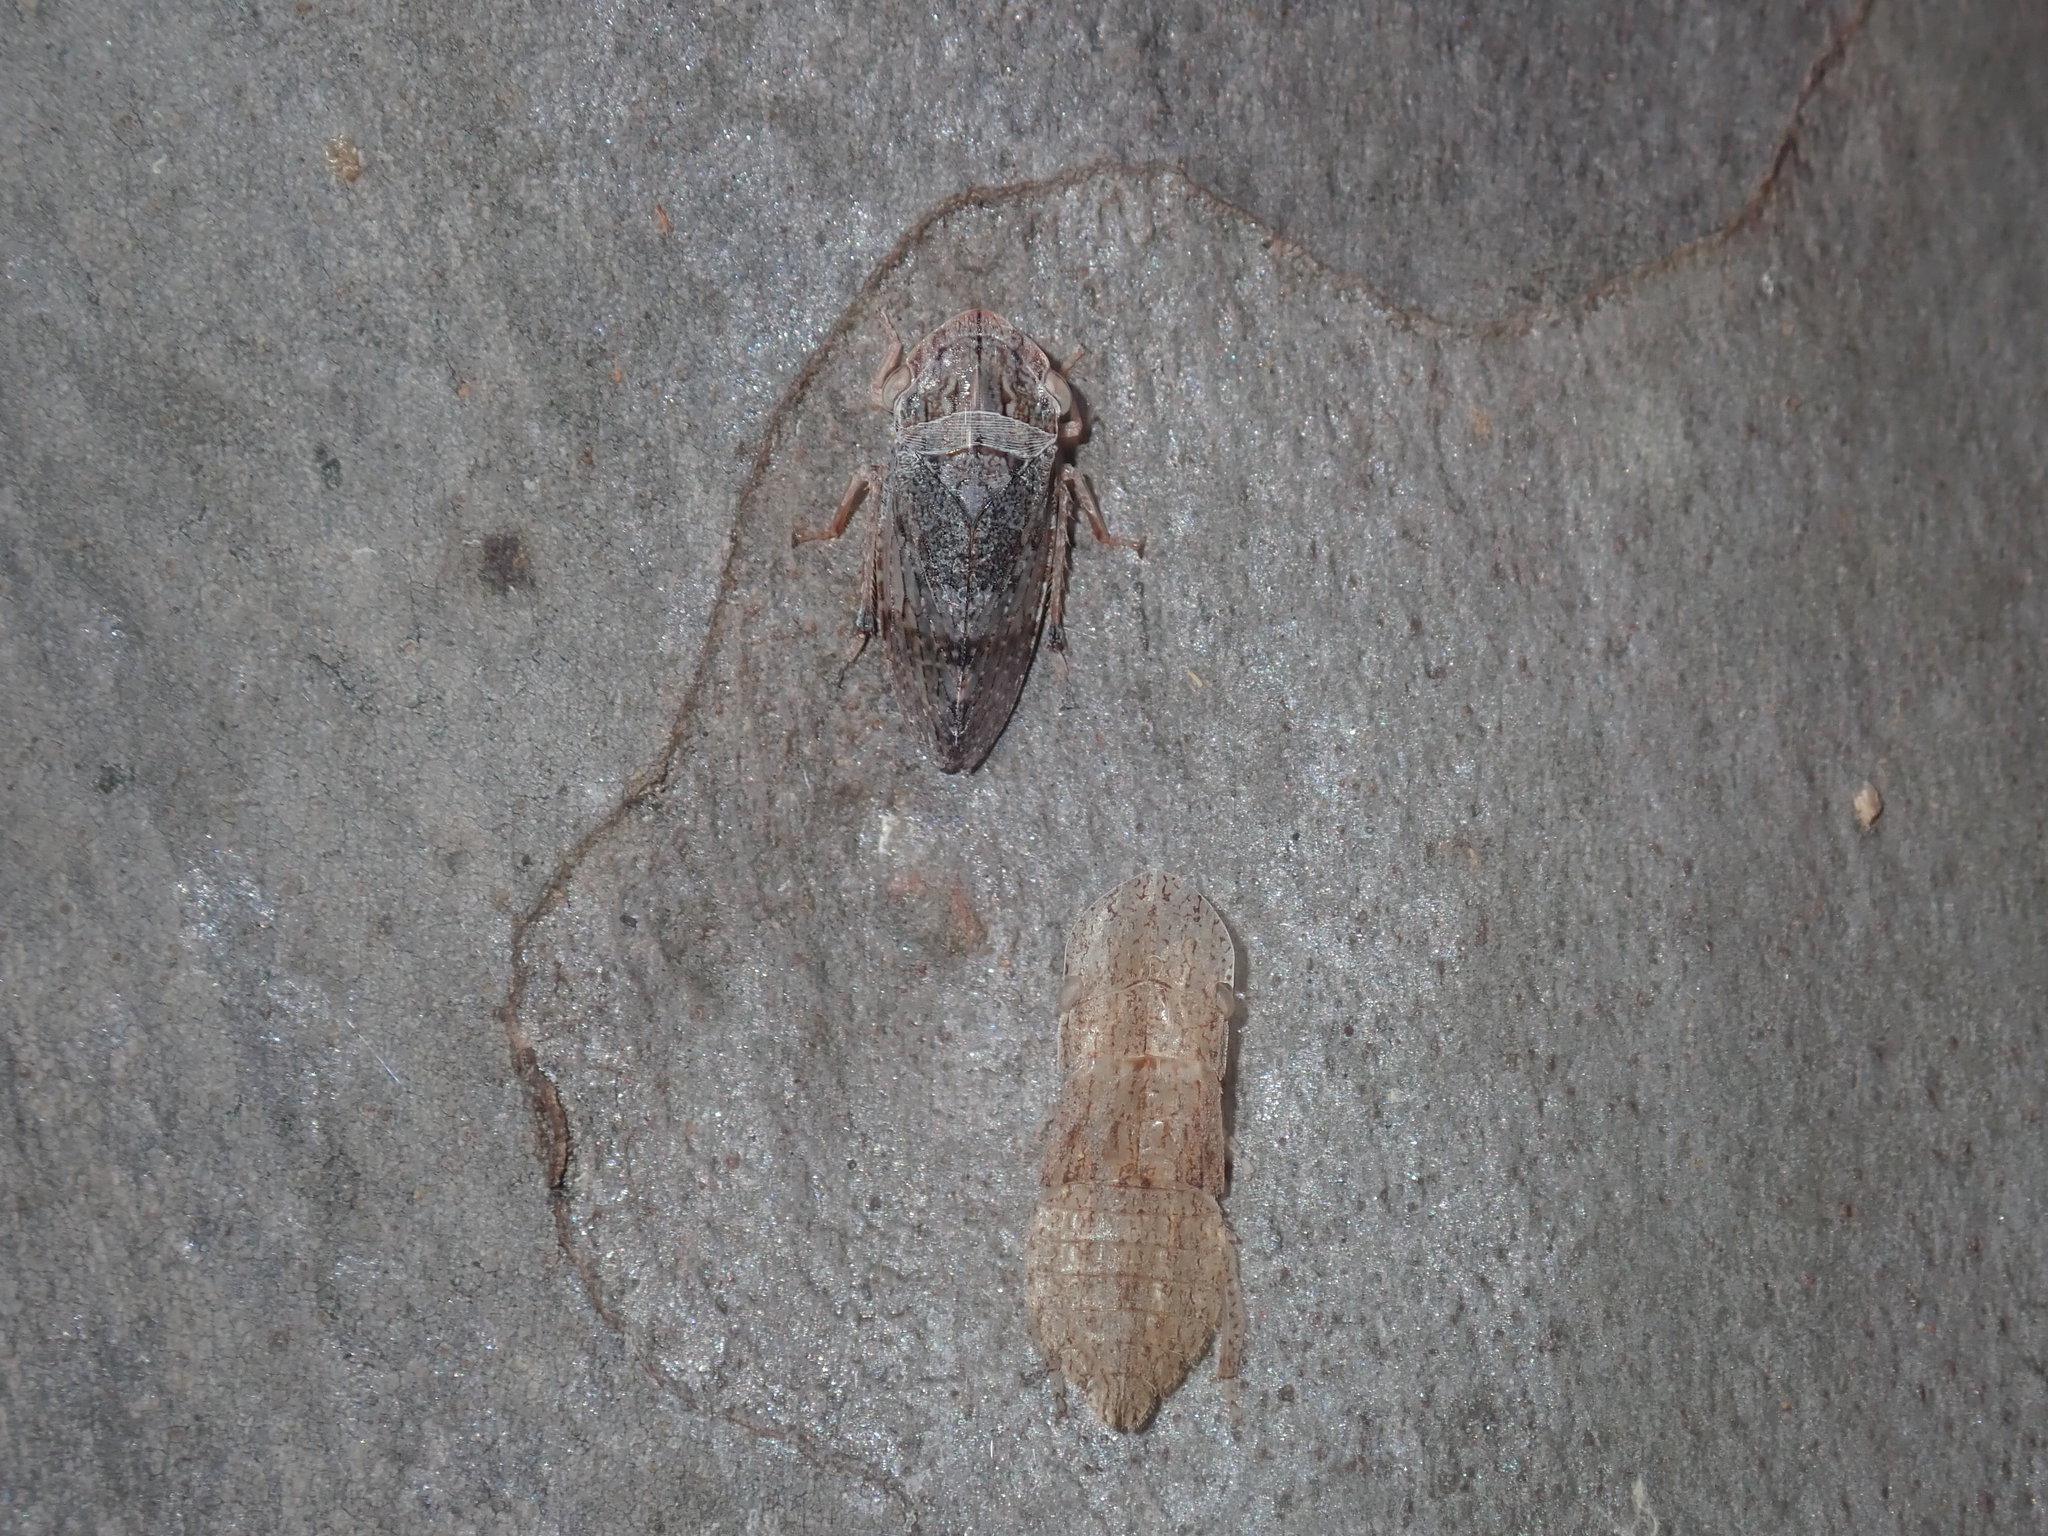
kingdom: Animalia
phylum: Arthropoda
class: Insecta
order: Hemiptera
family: Cicadellidae
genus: Stenocotis
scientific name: Stenocotis depressa
